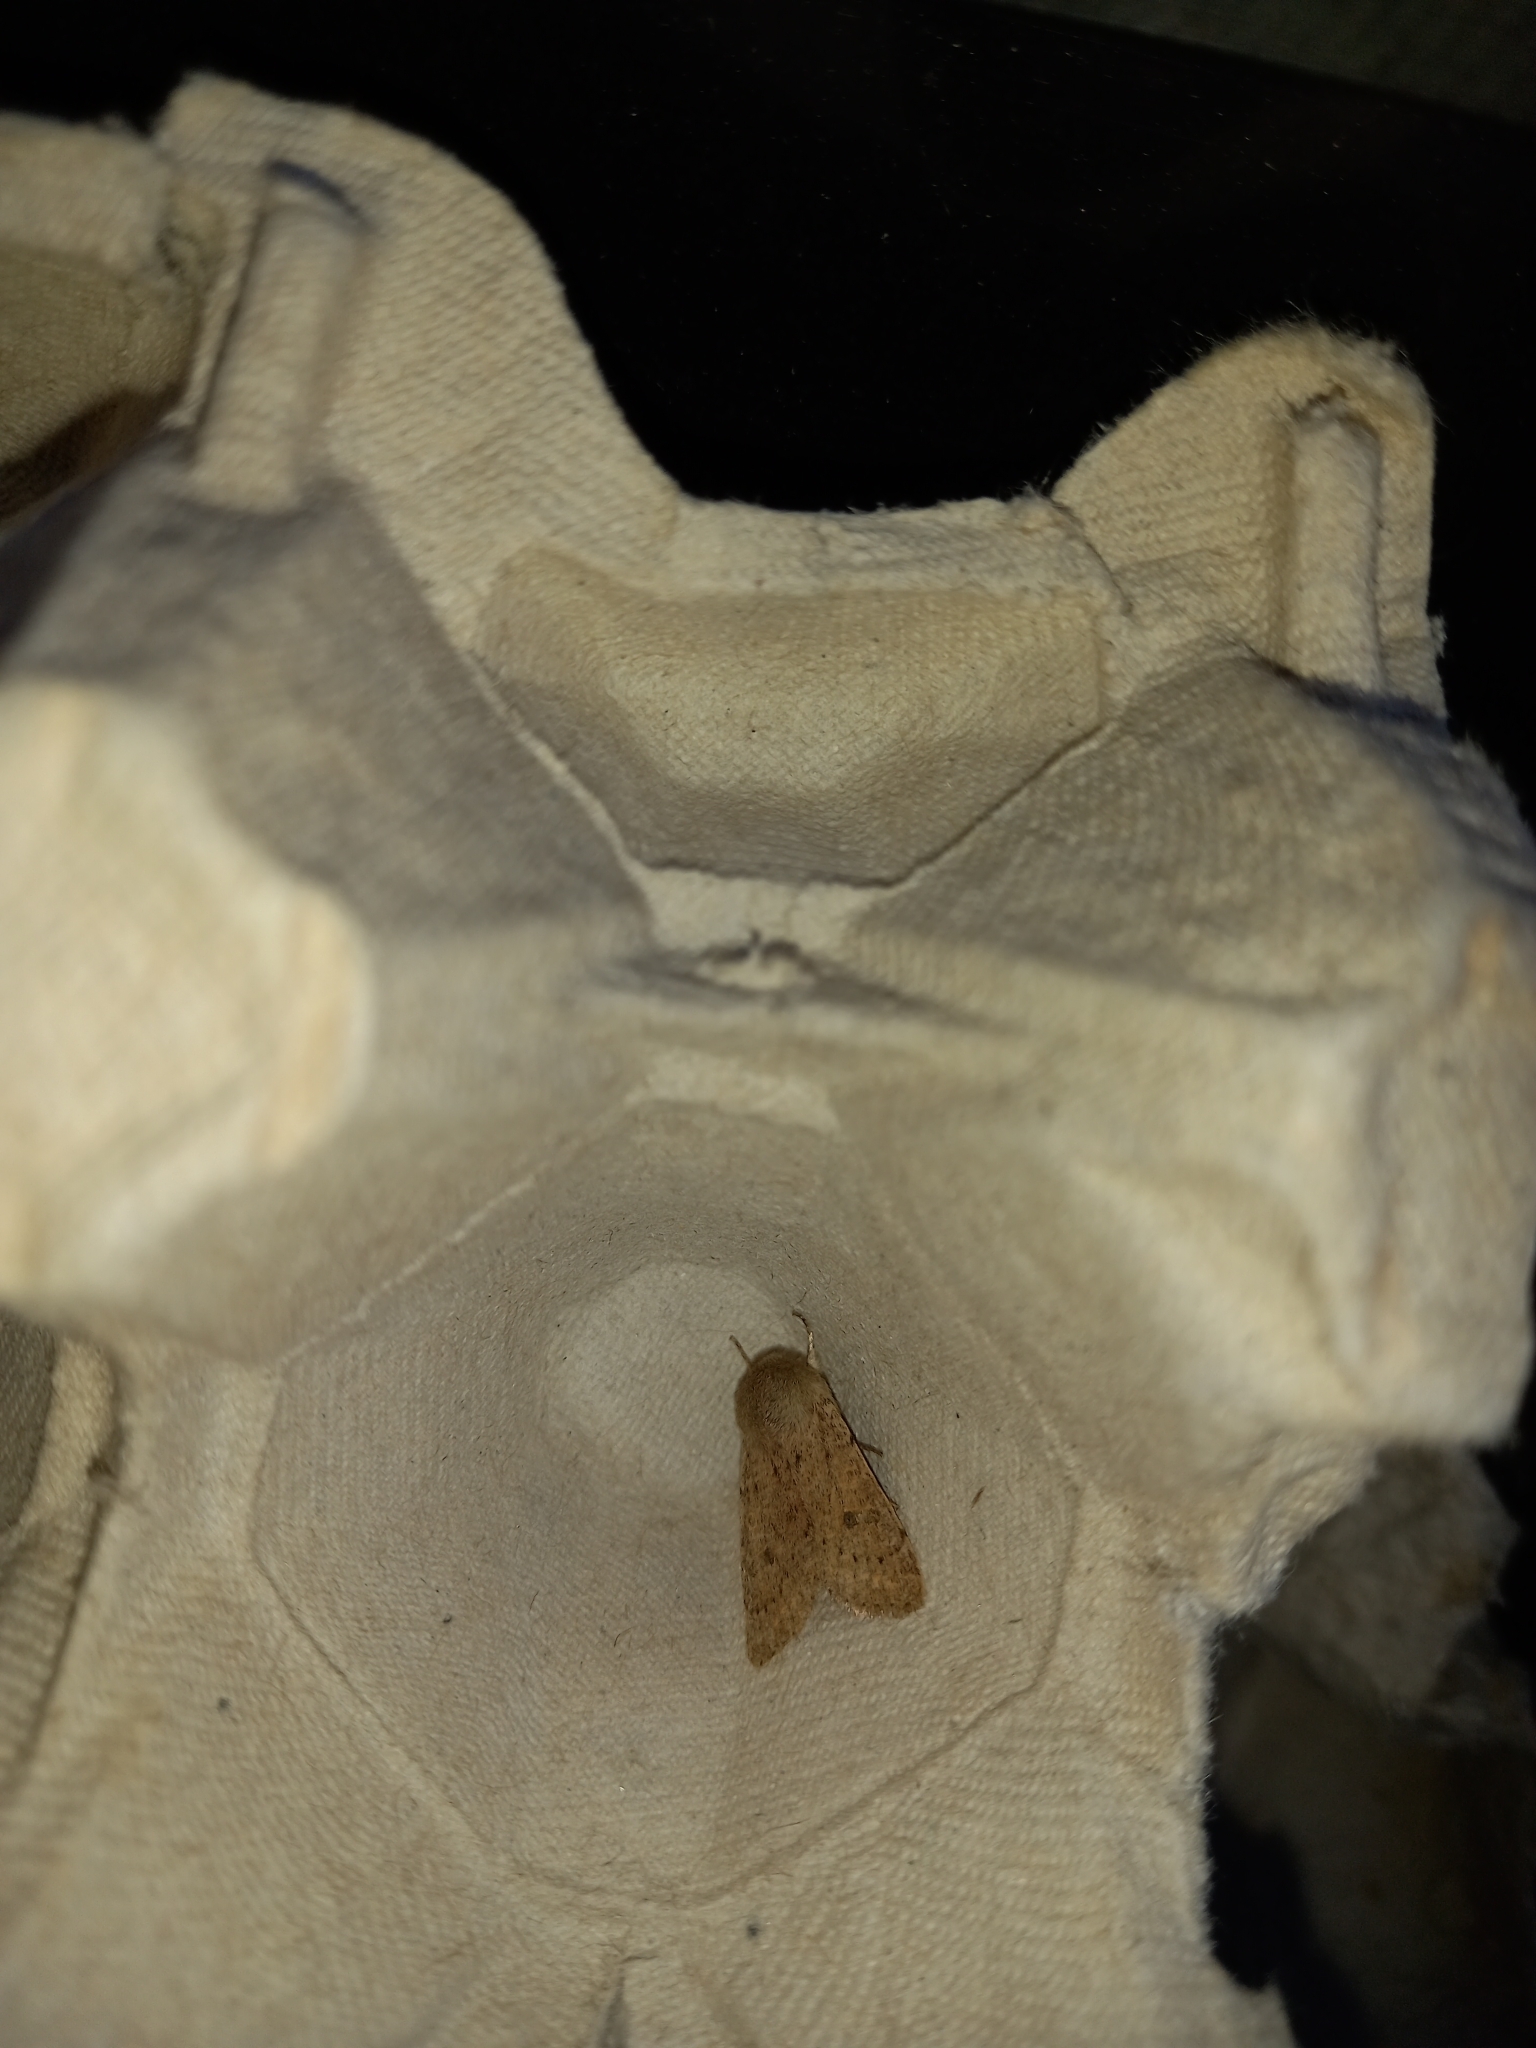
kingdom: Animalia
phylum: Arthropoda
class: Insecta
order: Lepidoptera
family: Noctuidae
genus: Orthosia
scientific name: Orthosia cruda
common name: Small quaker
